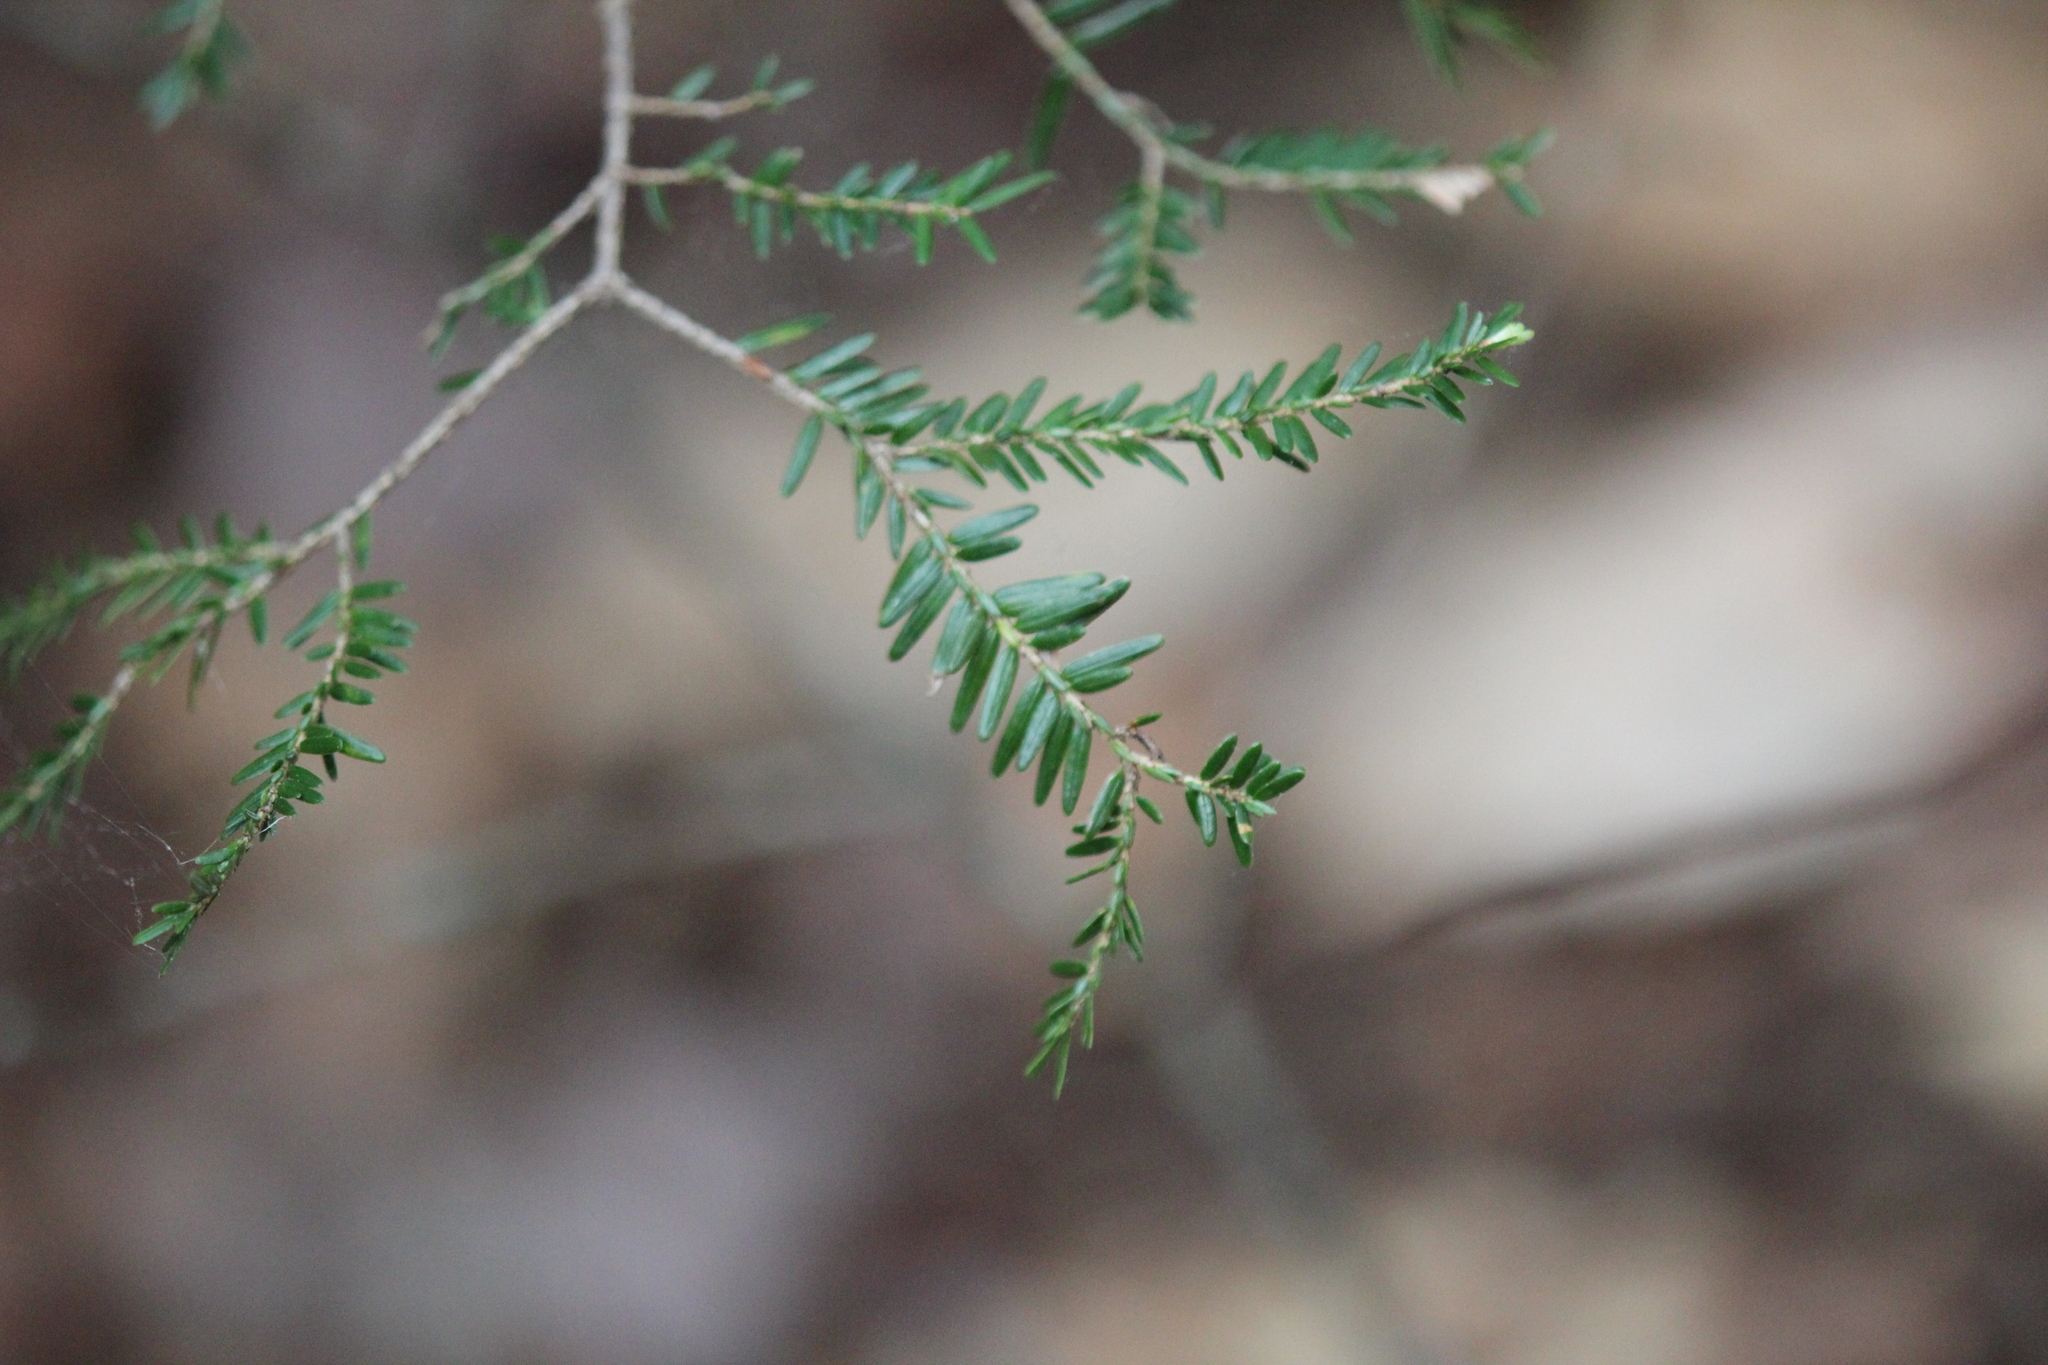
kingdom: Plantae
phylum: Tracheophyta
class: Pinopsida
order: Pinales
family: Pinaceae
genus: Tsuga
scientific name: Tsuga canadensis
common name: Eastern hemlock
